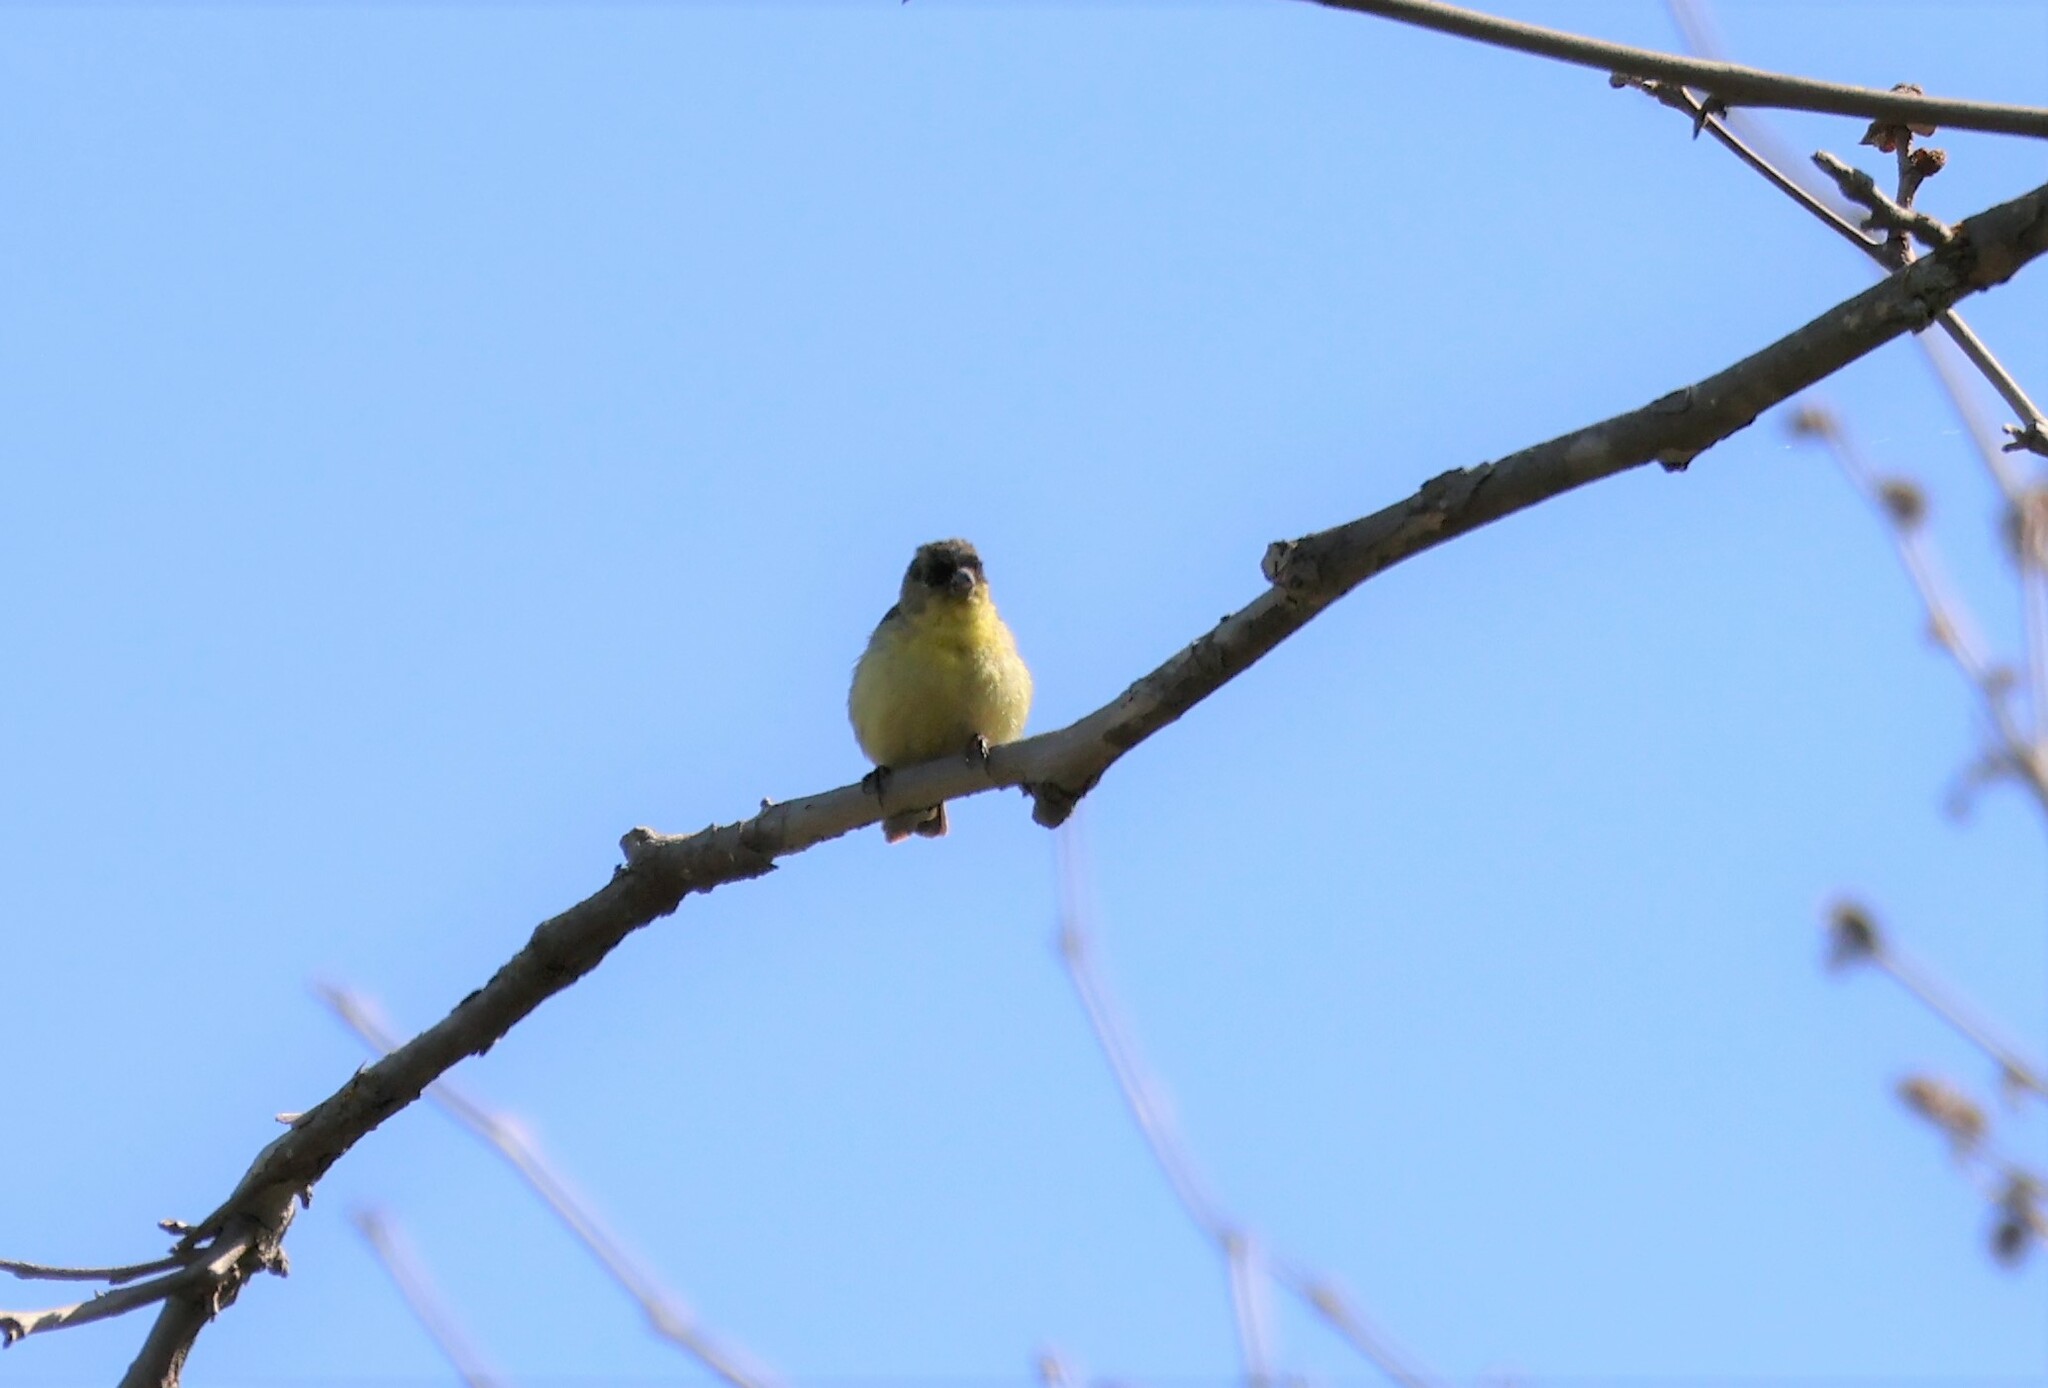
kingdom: Animalia
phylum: Chordata
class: Aves
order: Passeriformes
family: Fringillidae
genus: Spinus
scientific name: Spinus psaltria
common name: Lesser goldfinch
